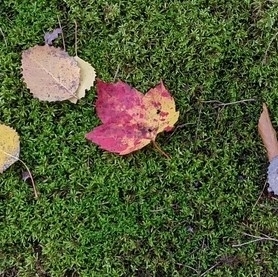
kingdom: Plantae
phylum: Tracheophyta
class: Magnoliopsida
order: Sapindales
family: Sapindaceae
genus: Acer
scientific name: Acer rubrum
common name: Red maple
